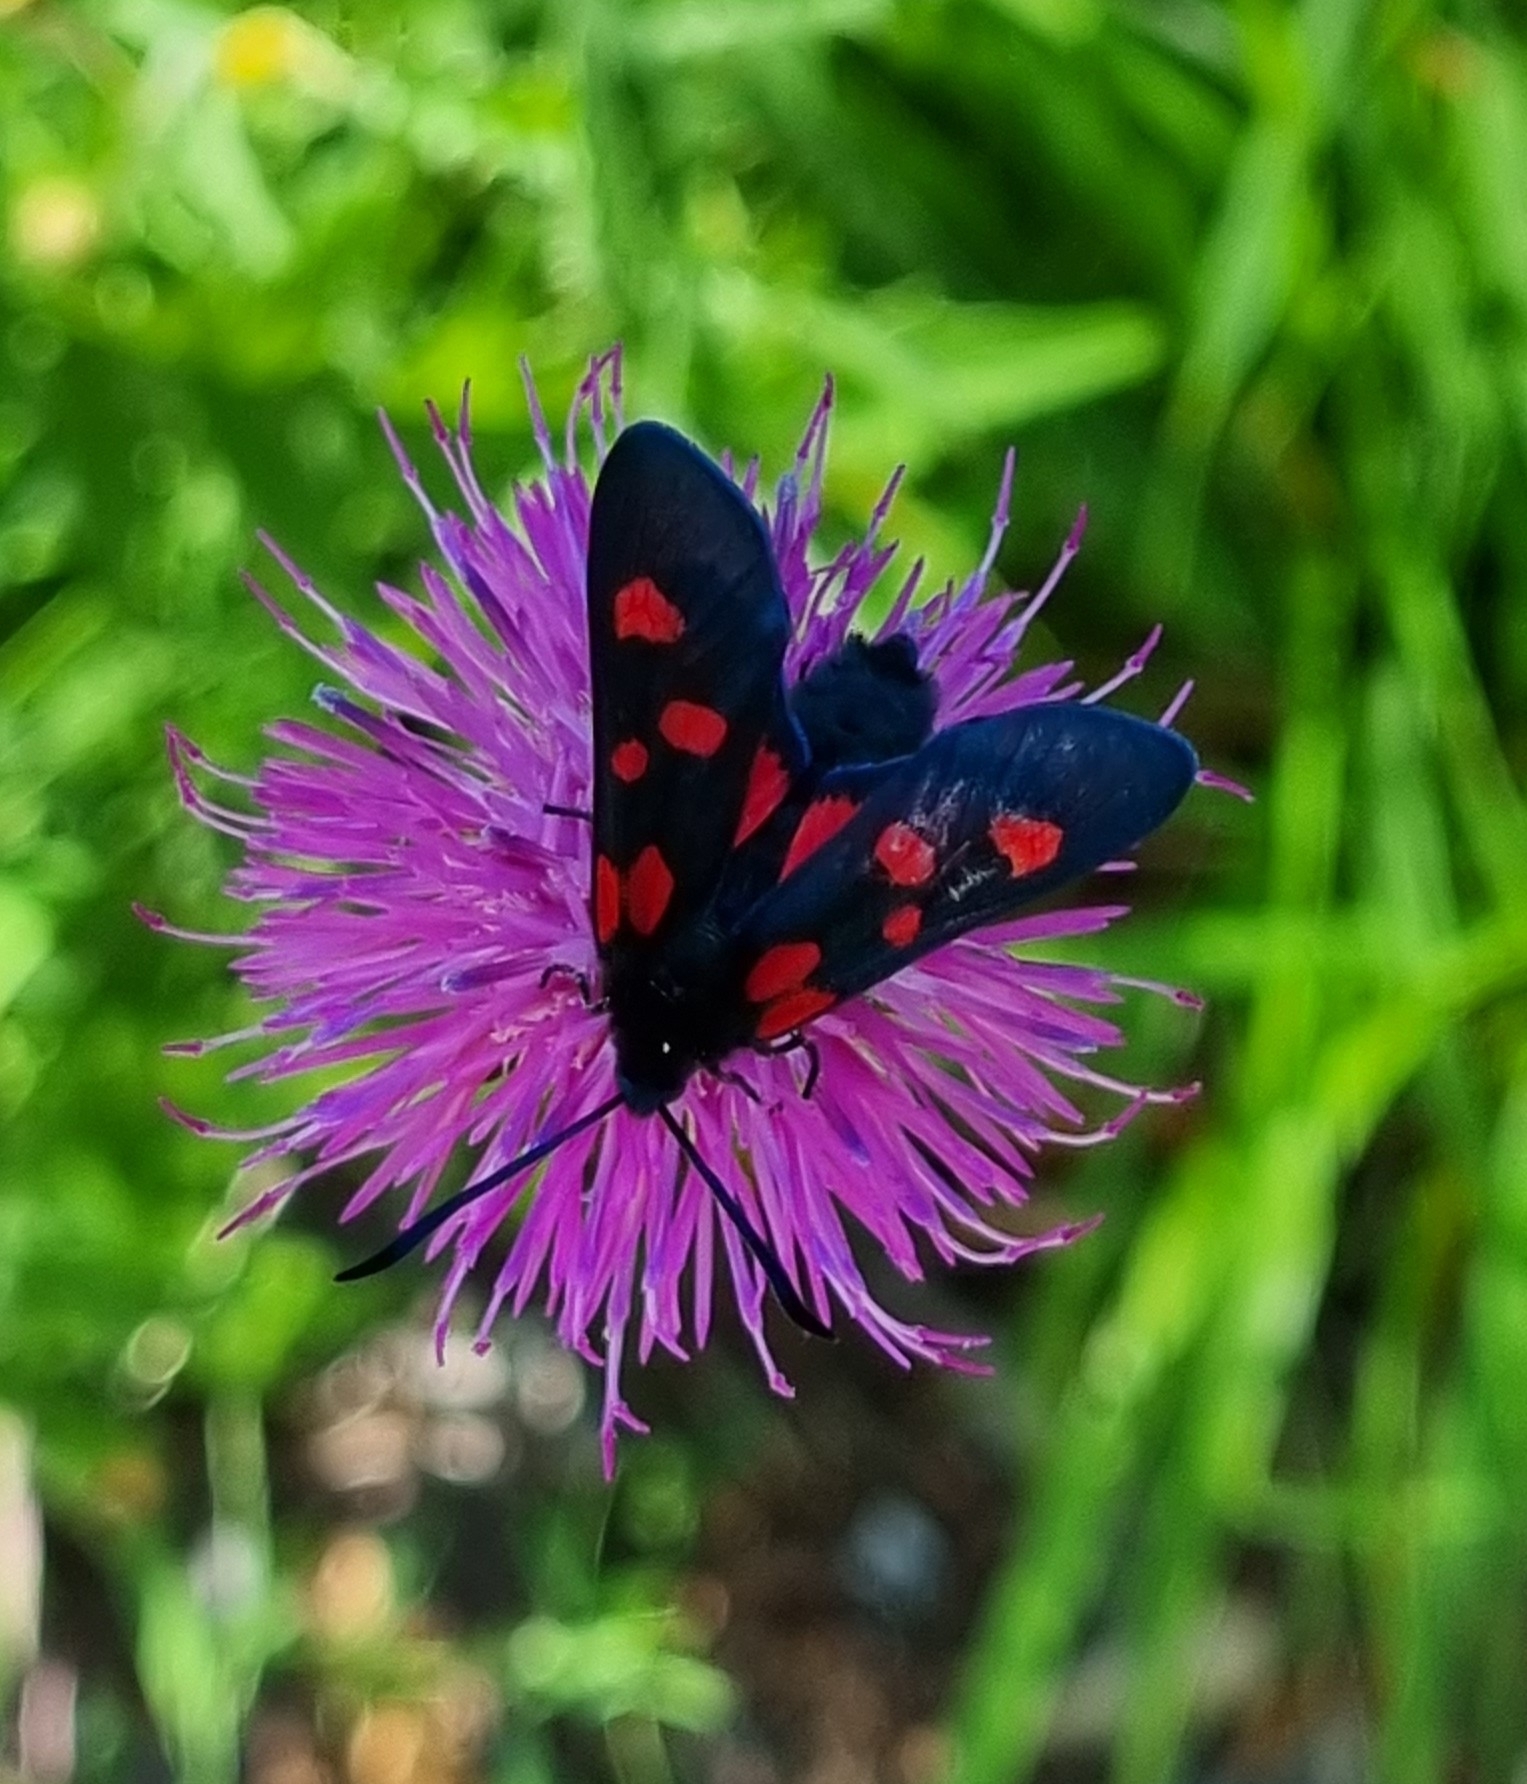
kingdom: Animalia
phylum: Arthropoda
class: Insecta
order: Lepidoptera
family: Zygaenidae
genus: Zygaena
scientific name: Zygaena lonicerae
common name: Narrow-bordered five-spot burnet
